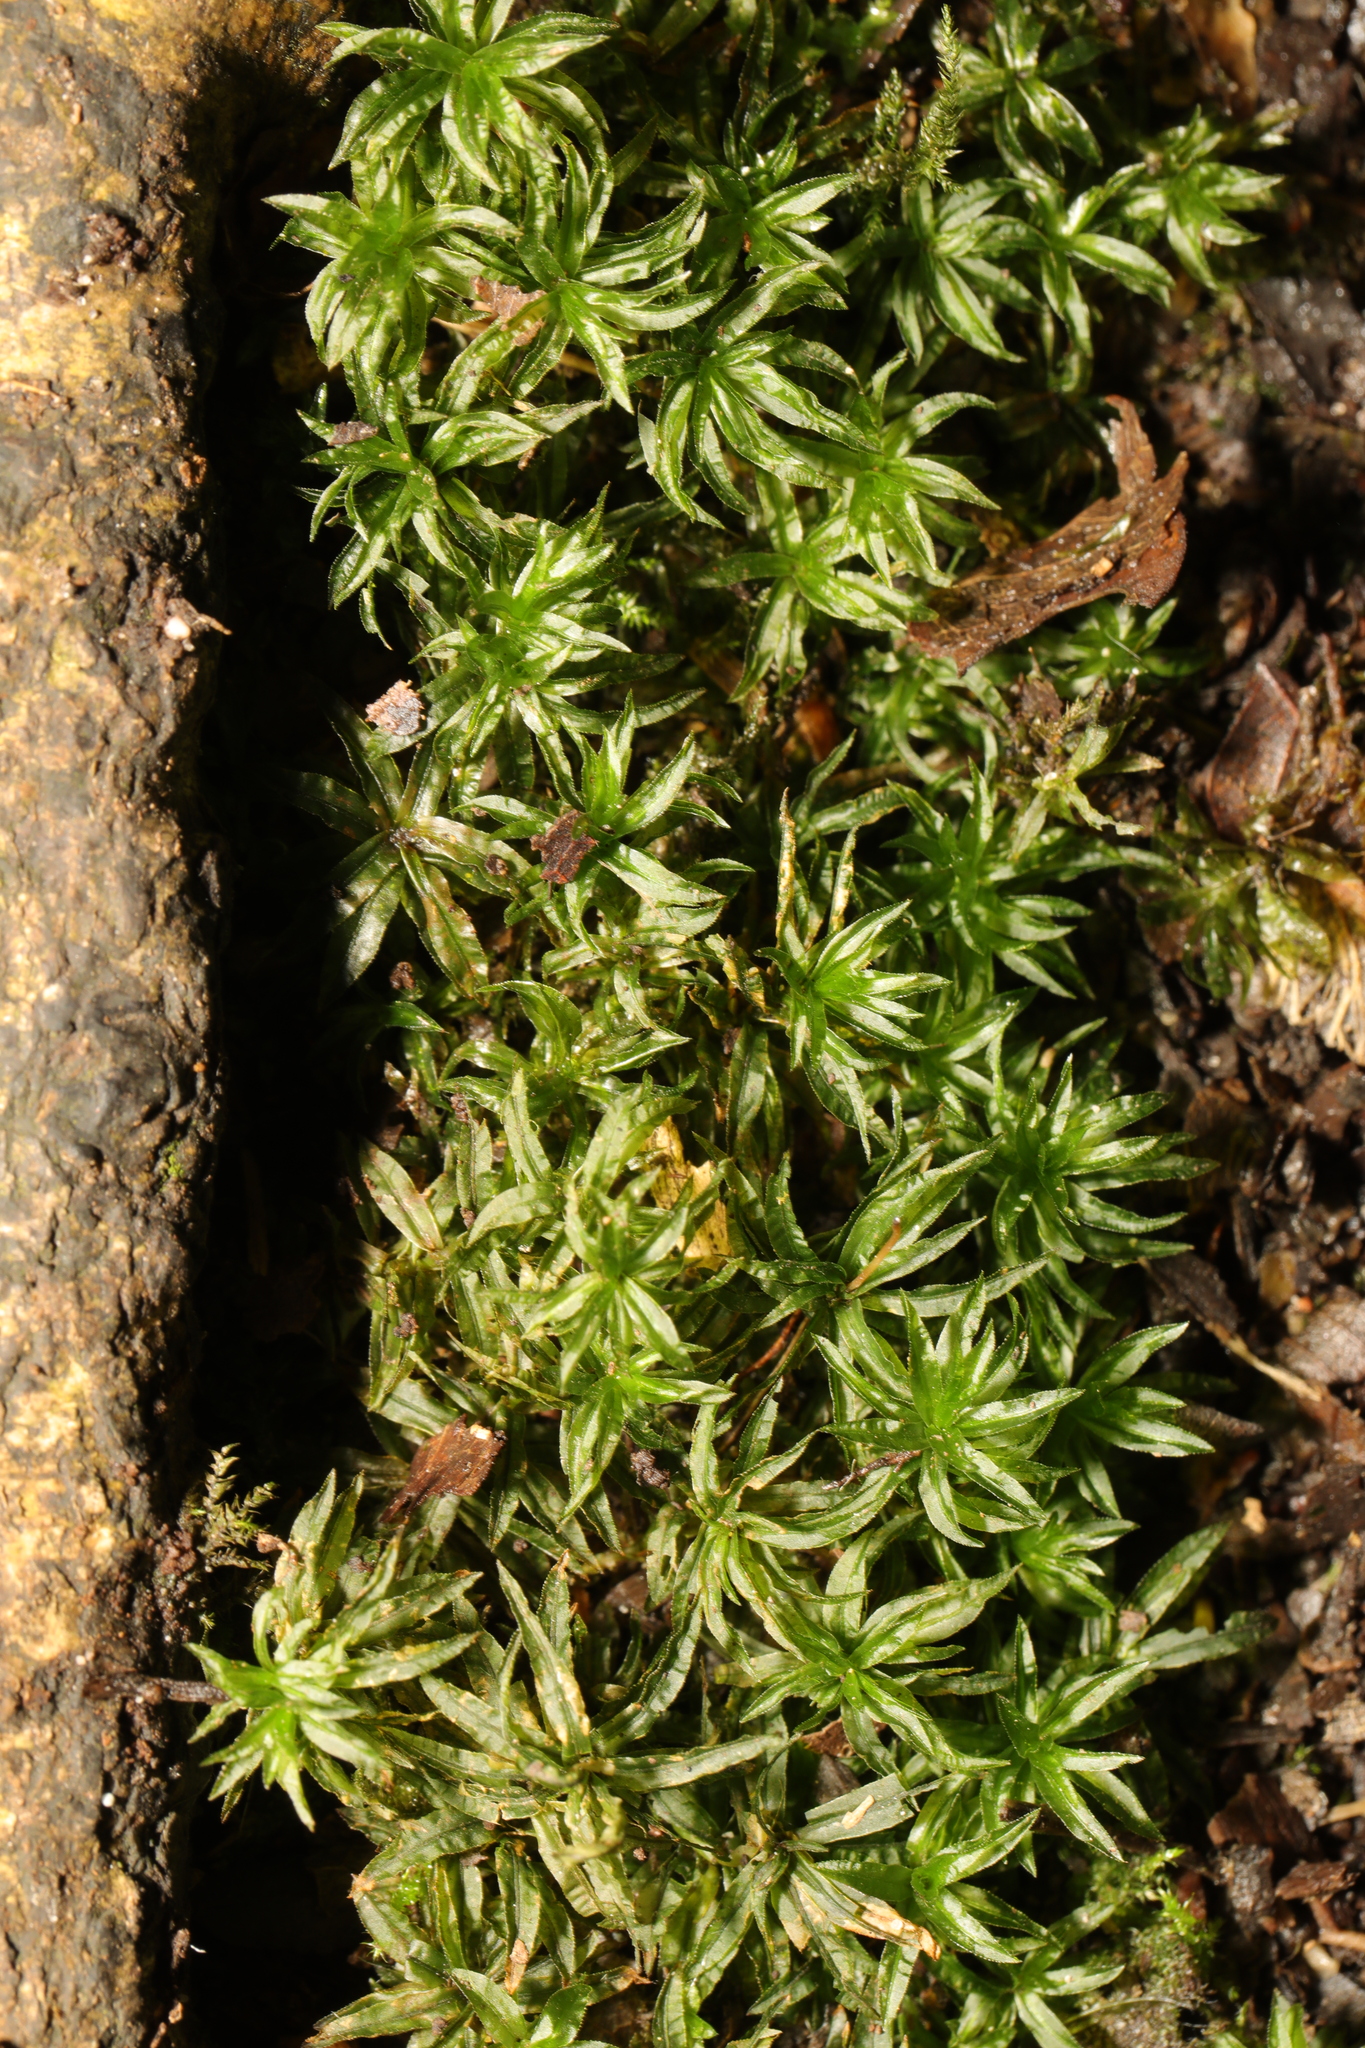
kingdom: Plantae
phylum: Bryophyta
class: Polytrichopsida
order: Polytrichales
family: Polytrichaceae
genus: Atrichum
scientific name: Atrichum undulatum
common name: Common smoothcap
